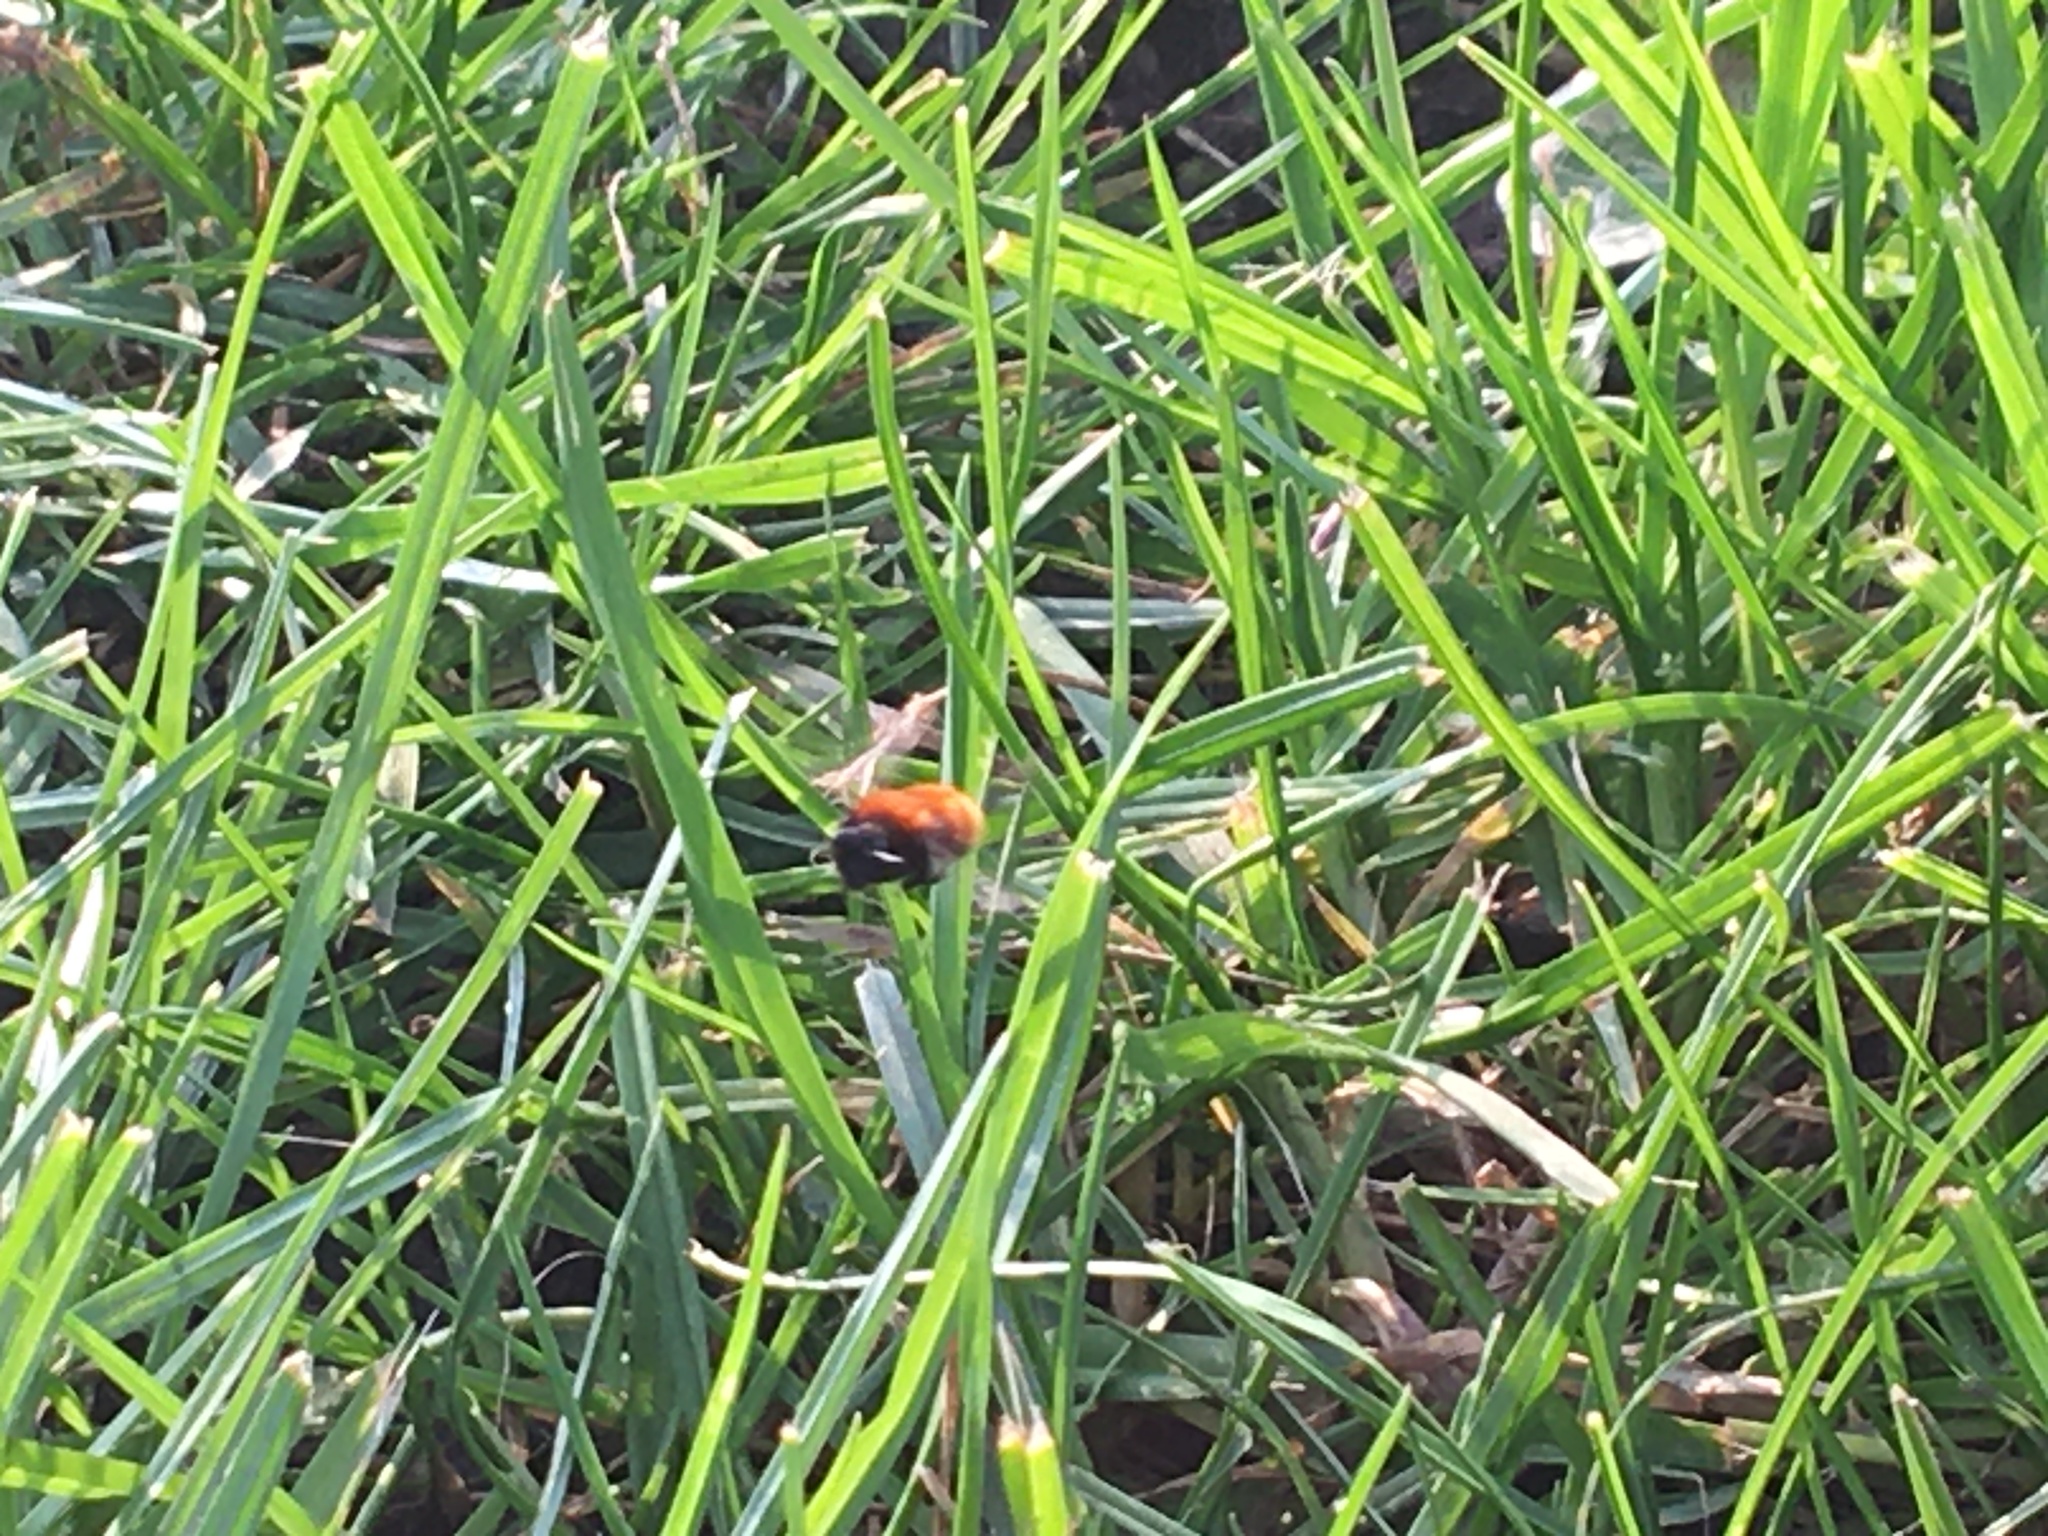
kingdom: Animalia
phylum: Arthropoda
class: Insecta
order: Hymenoptera
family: Andrenidae
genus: Andrena
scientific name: Andrena fulva
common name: Tawny mining bee
